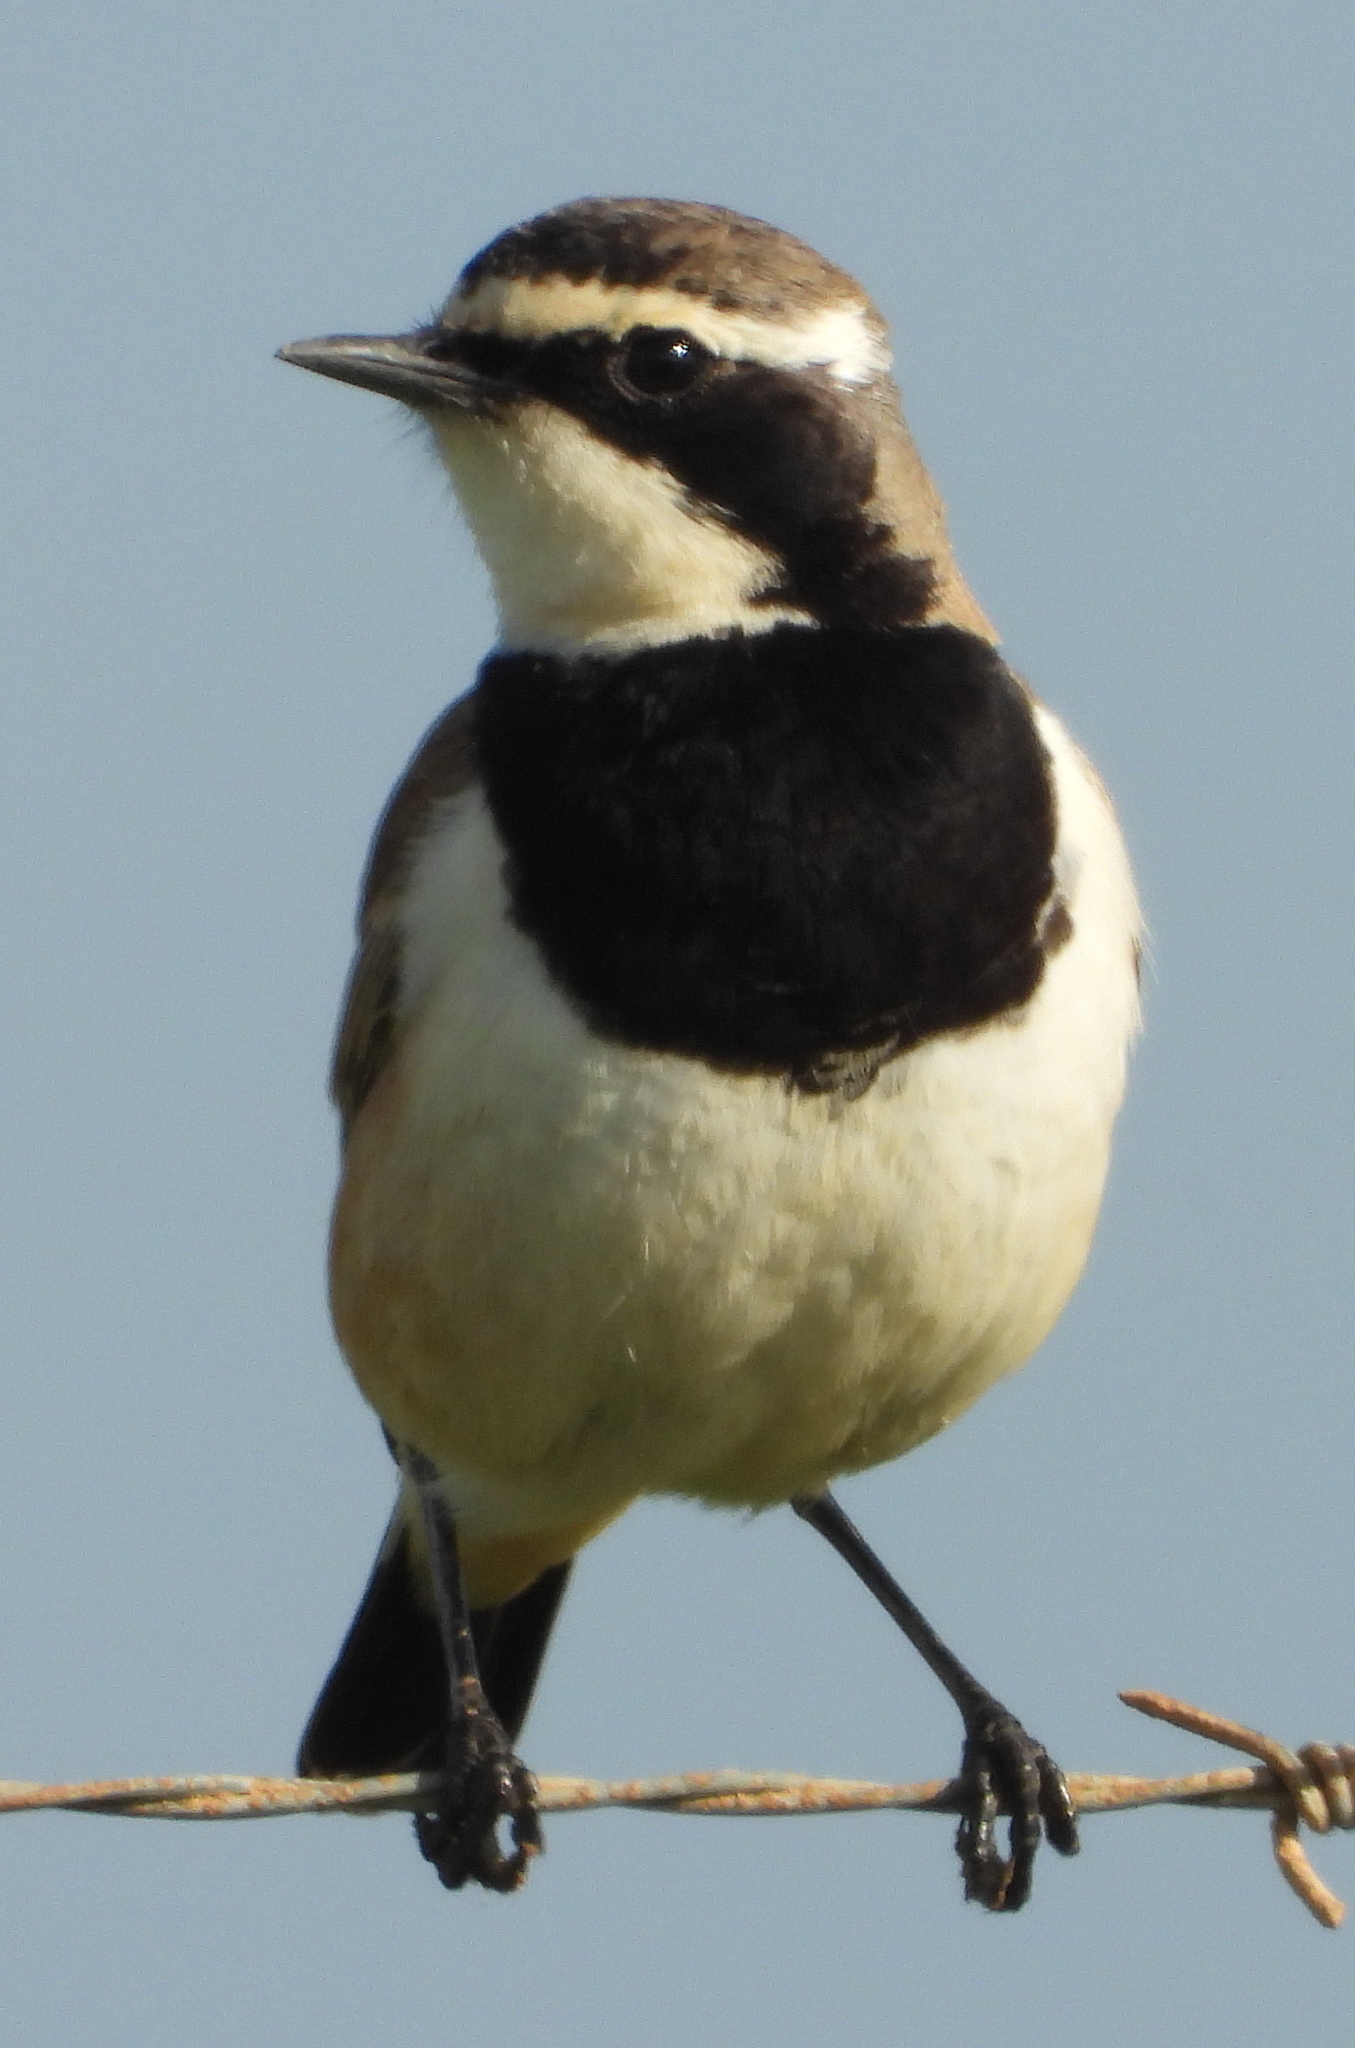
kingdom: Animalia
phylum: Chordata
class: Aves
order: Passeriformes
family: Muscicapidae
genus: Oenanthe
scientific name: Oenanthe pileata
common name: Capped wheatear
